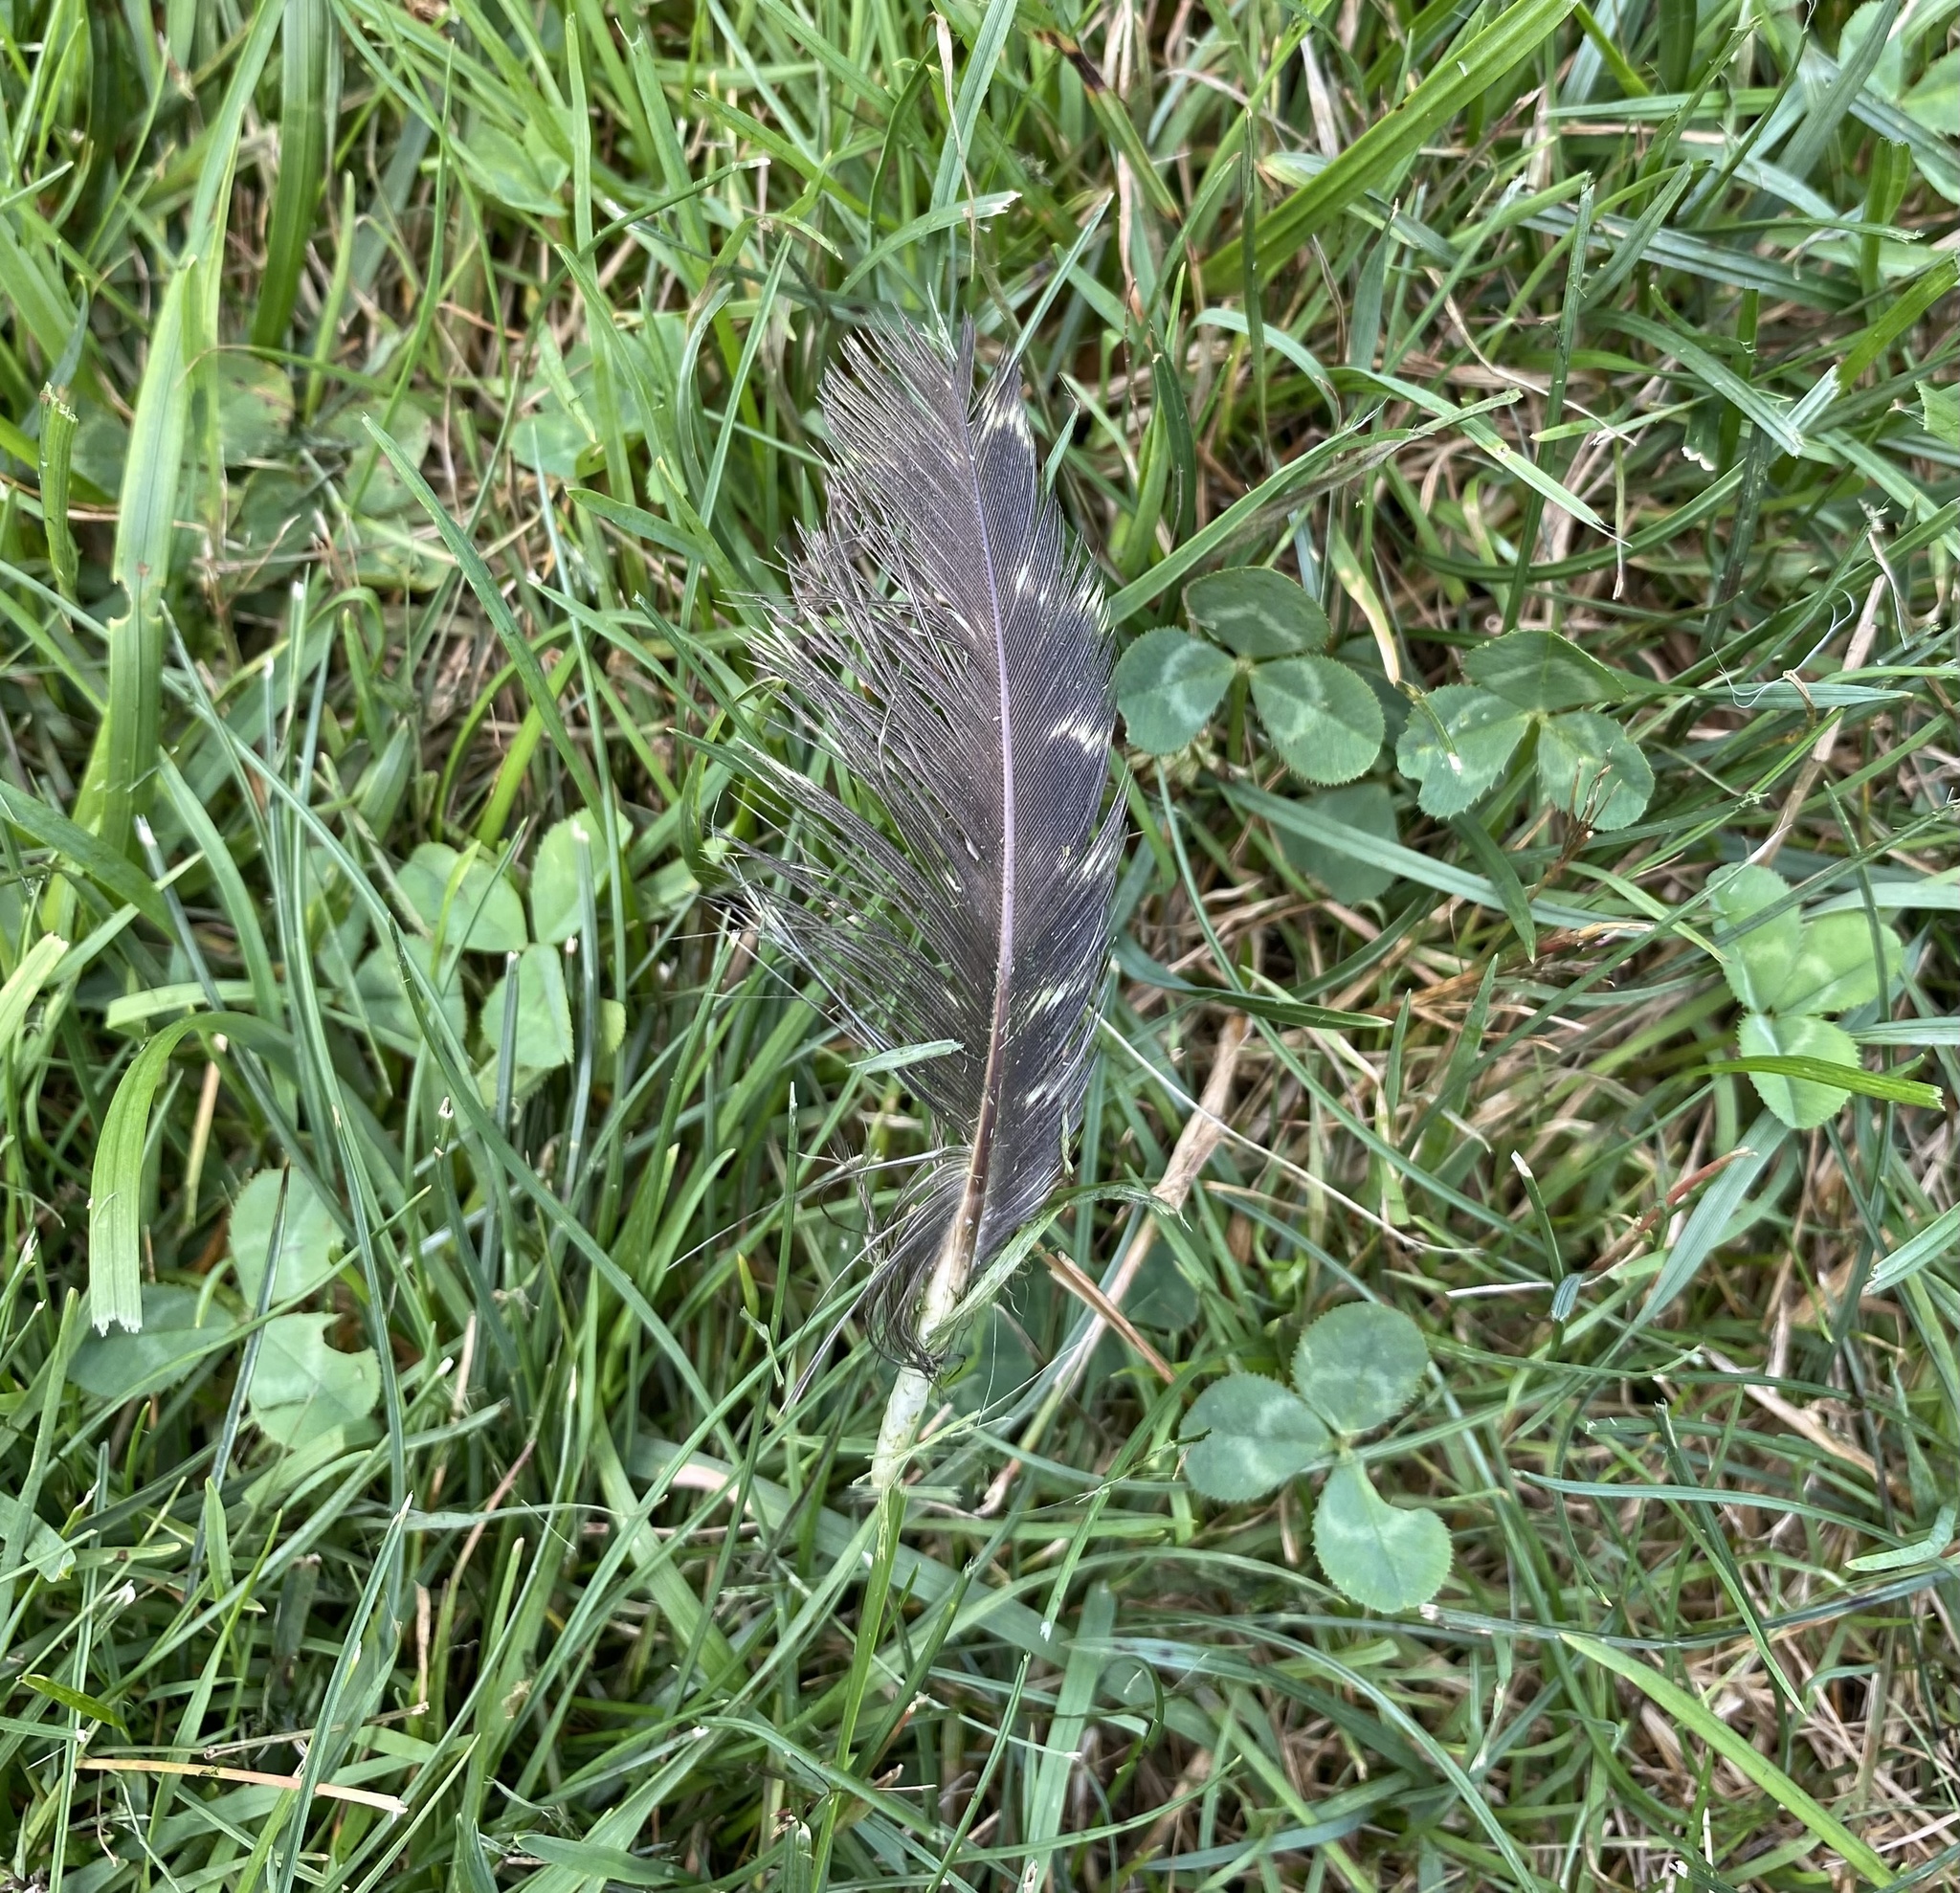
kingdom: Animalia
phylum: Chordata
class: Aves
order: Galliformes
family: Phasianidae
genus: Meleagris
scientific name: Meleagris gallopavo
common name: Wild turkey
